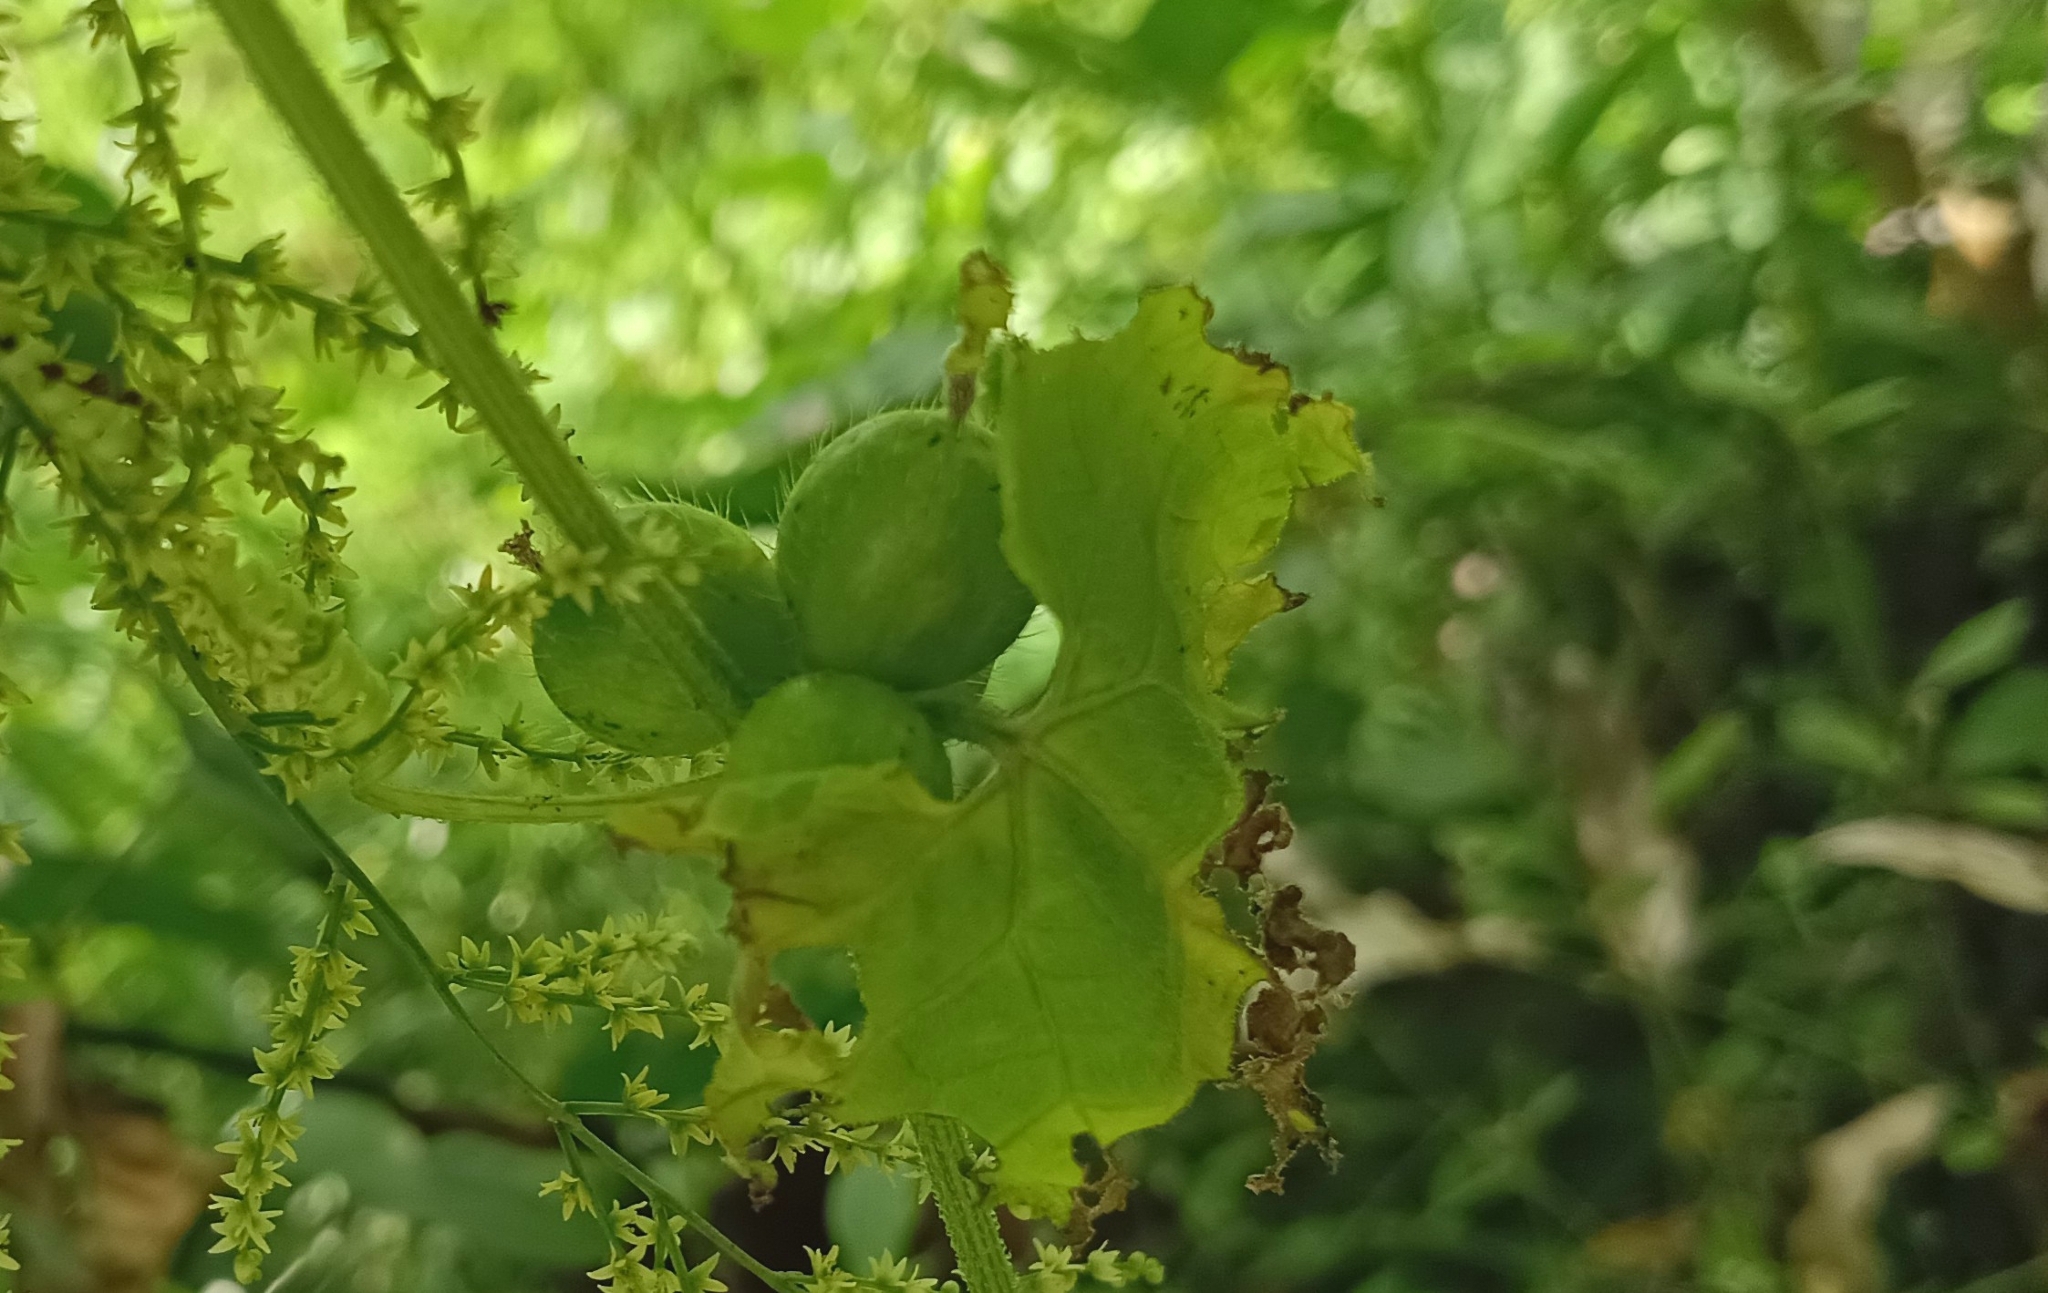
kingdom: Plantae
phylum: Tracheophyta
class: Magnoliopsida
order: Cucurbitales
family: Cucurbitaceae
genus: Cucumis
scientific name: Cucumis maderaspatanus
